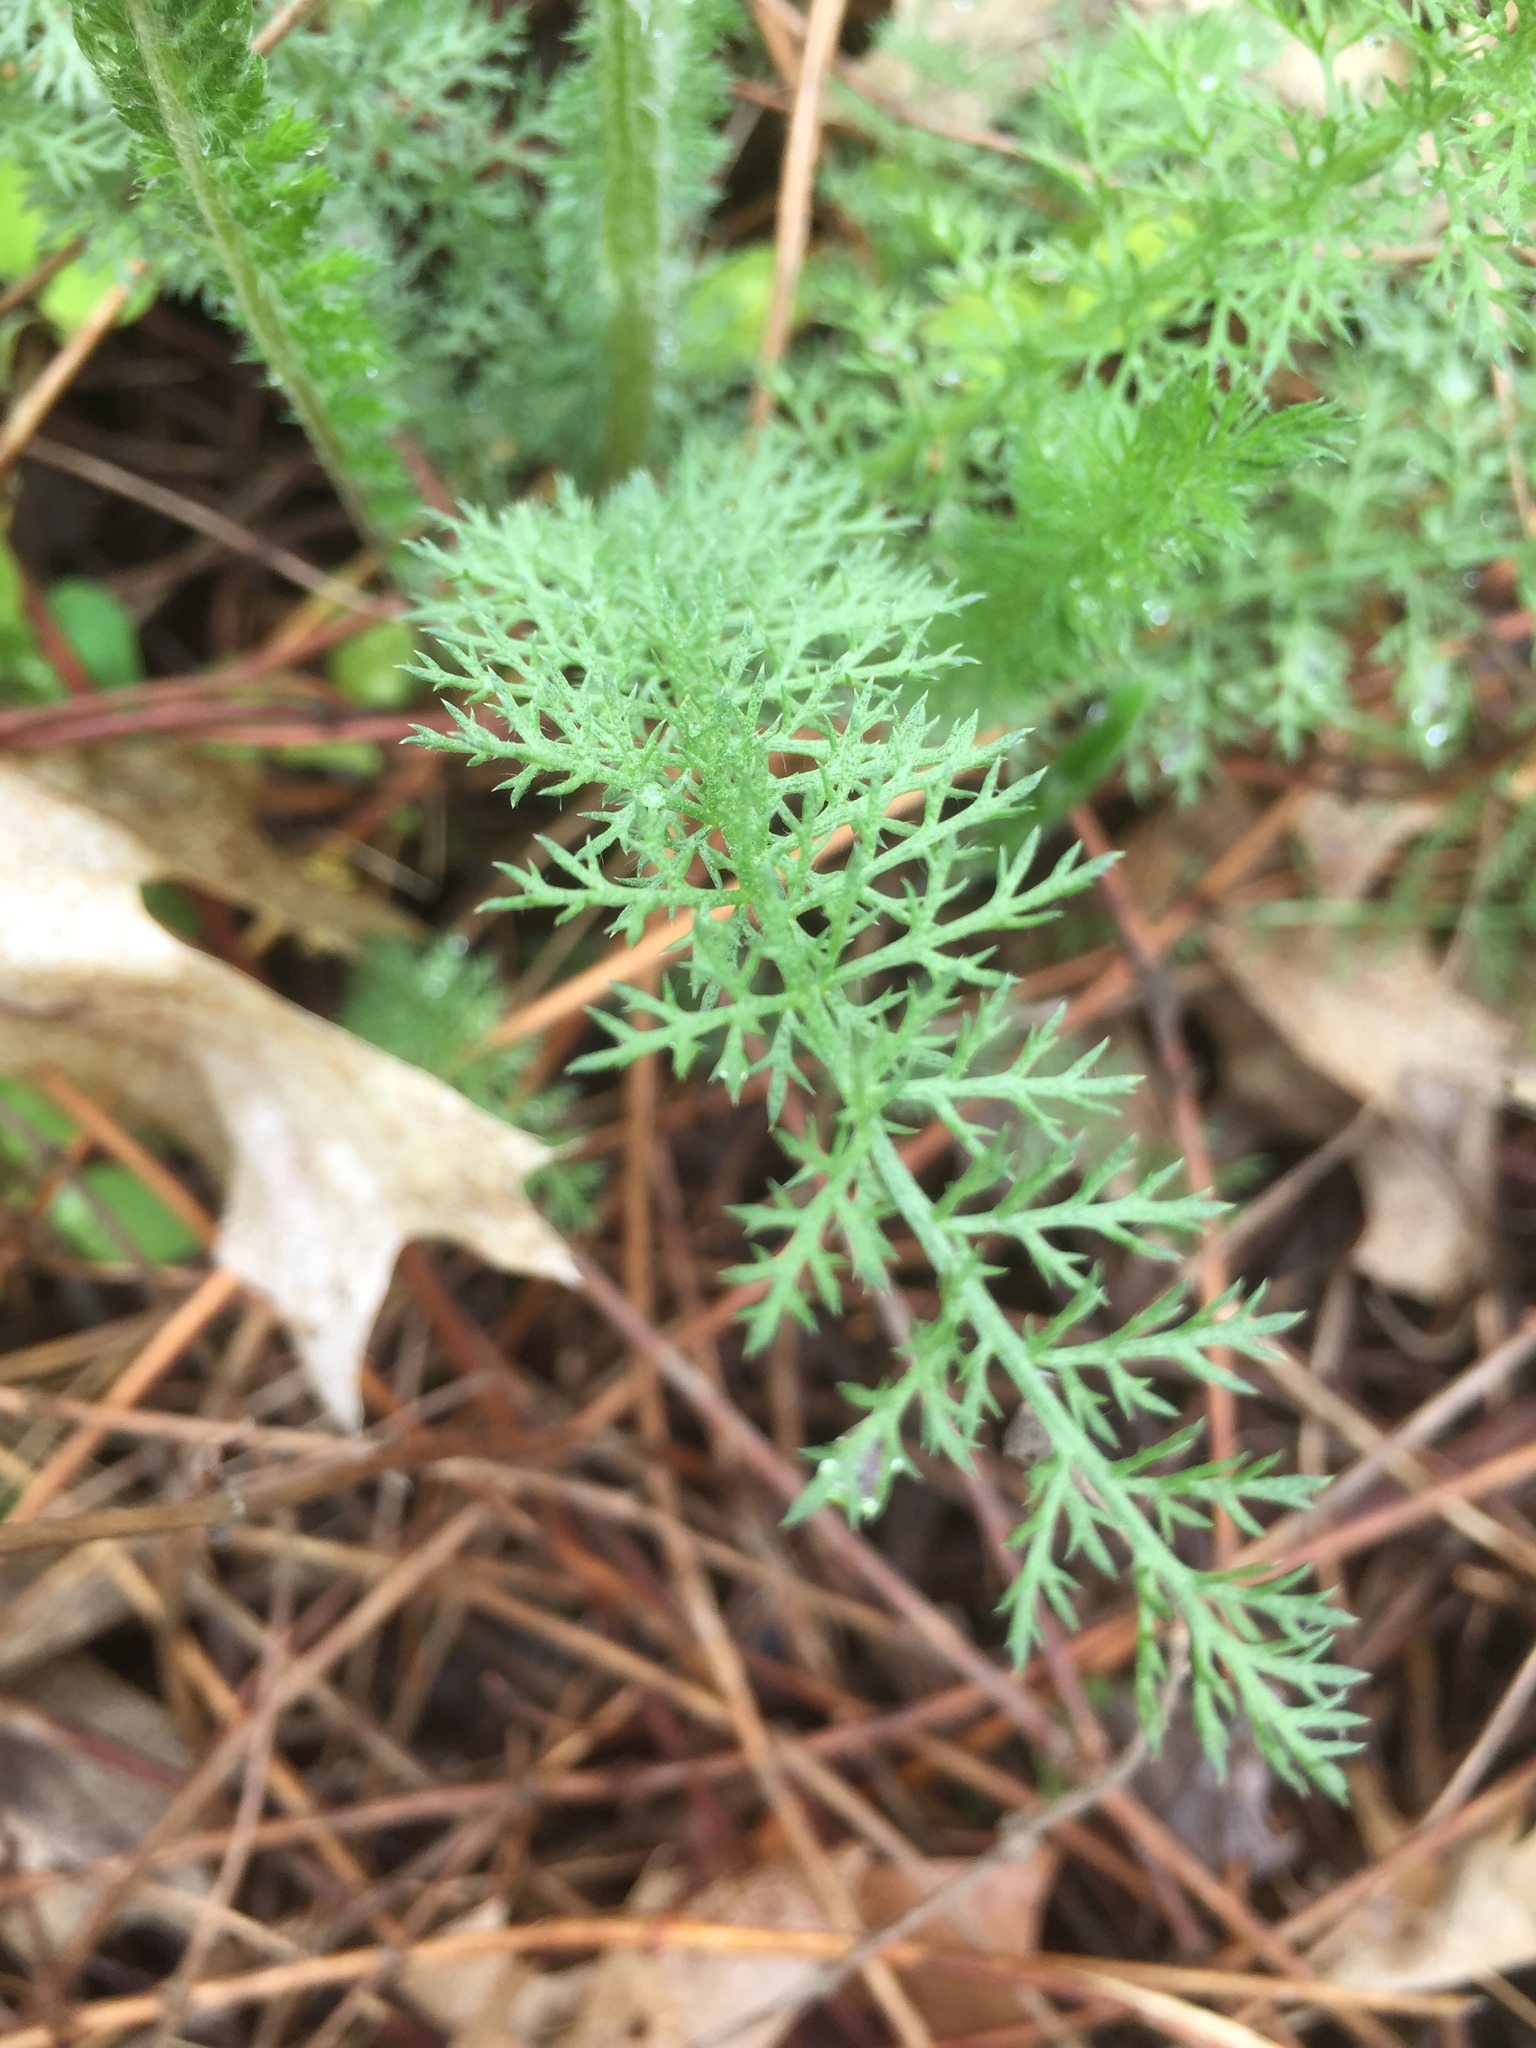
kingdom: Plantae
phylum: Tracheophyta
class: Magnoliopsida
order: Asterales
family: Asteraceae
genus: Achillea
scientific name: Achillea millefolium
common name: Yarrow
